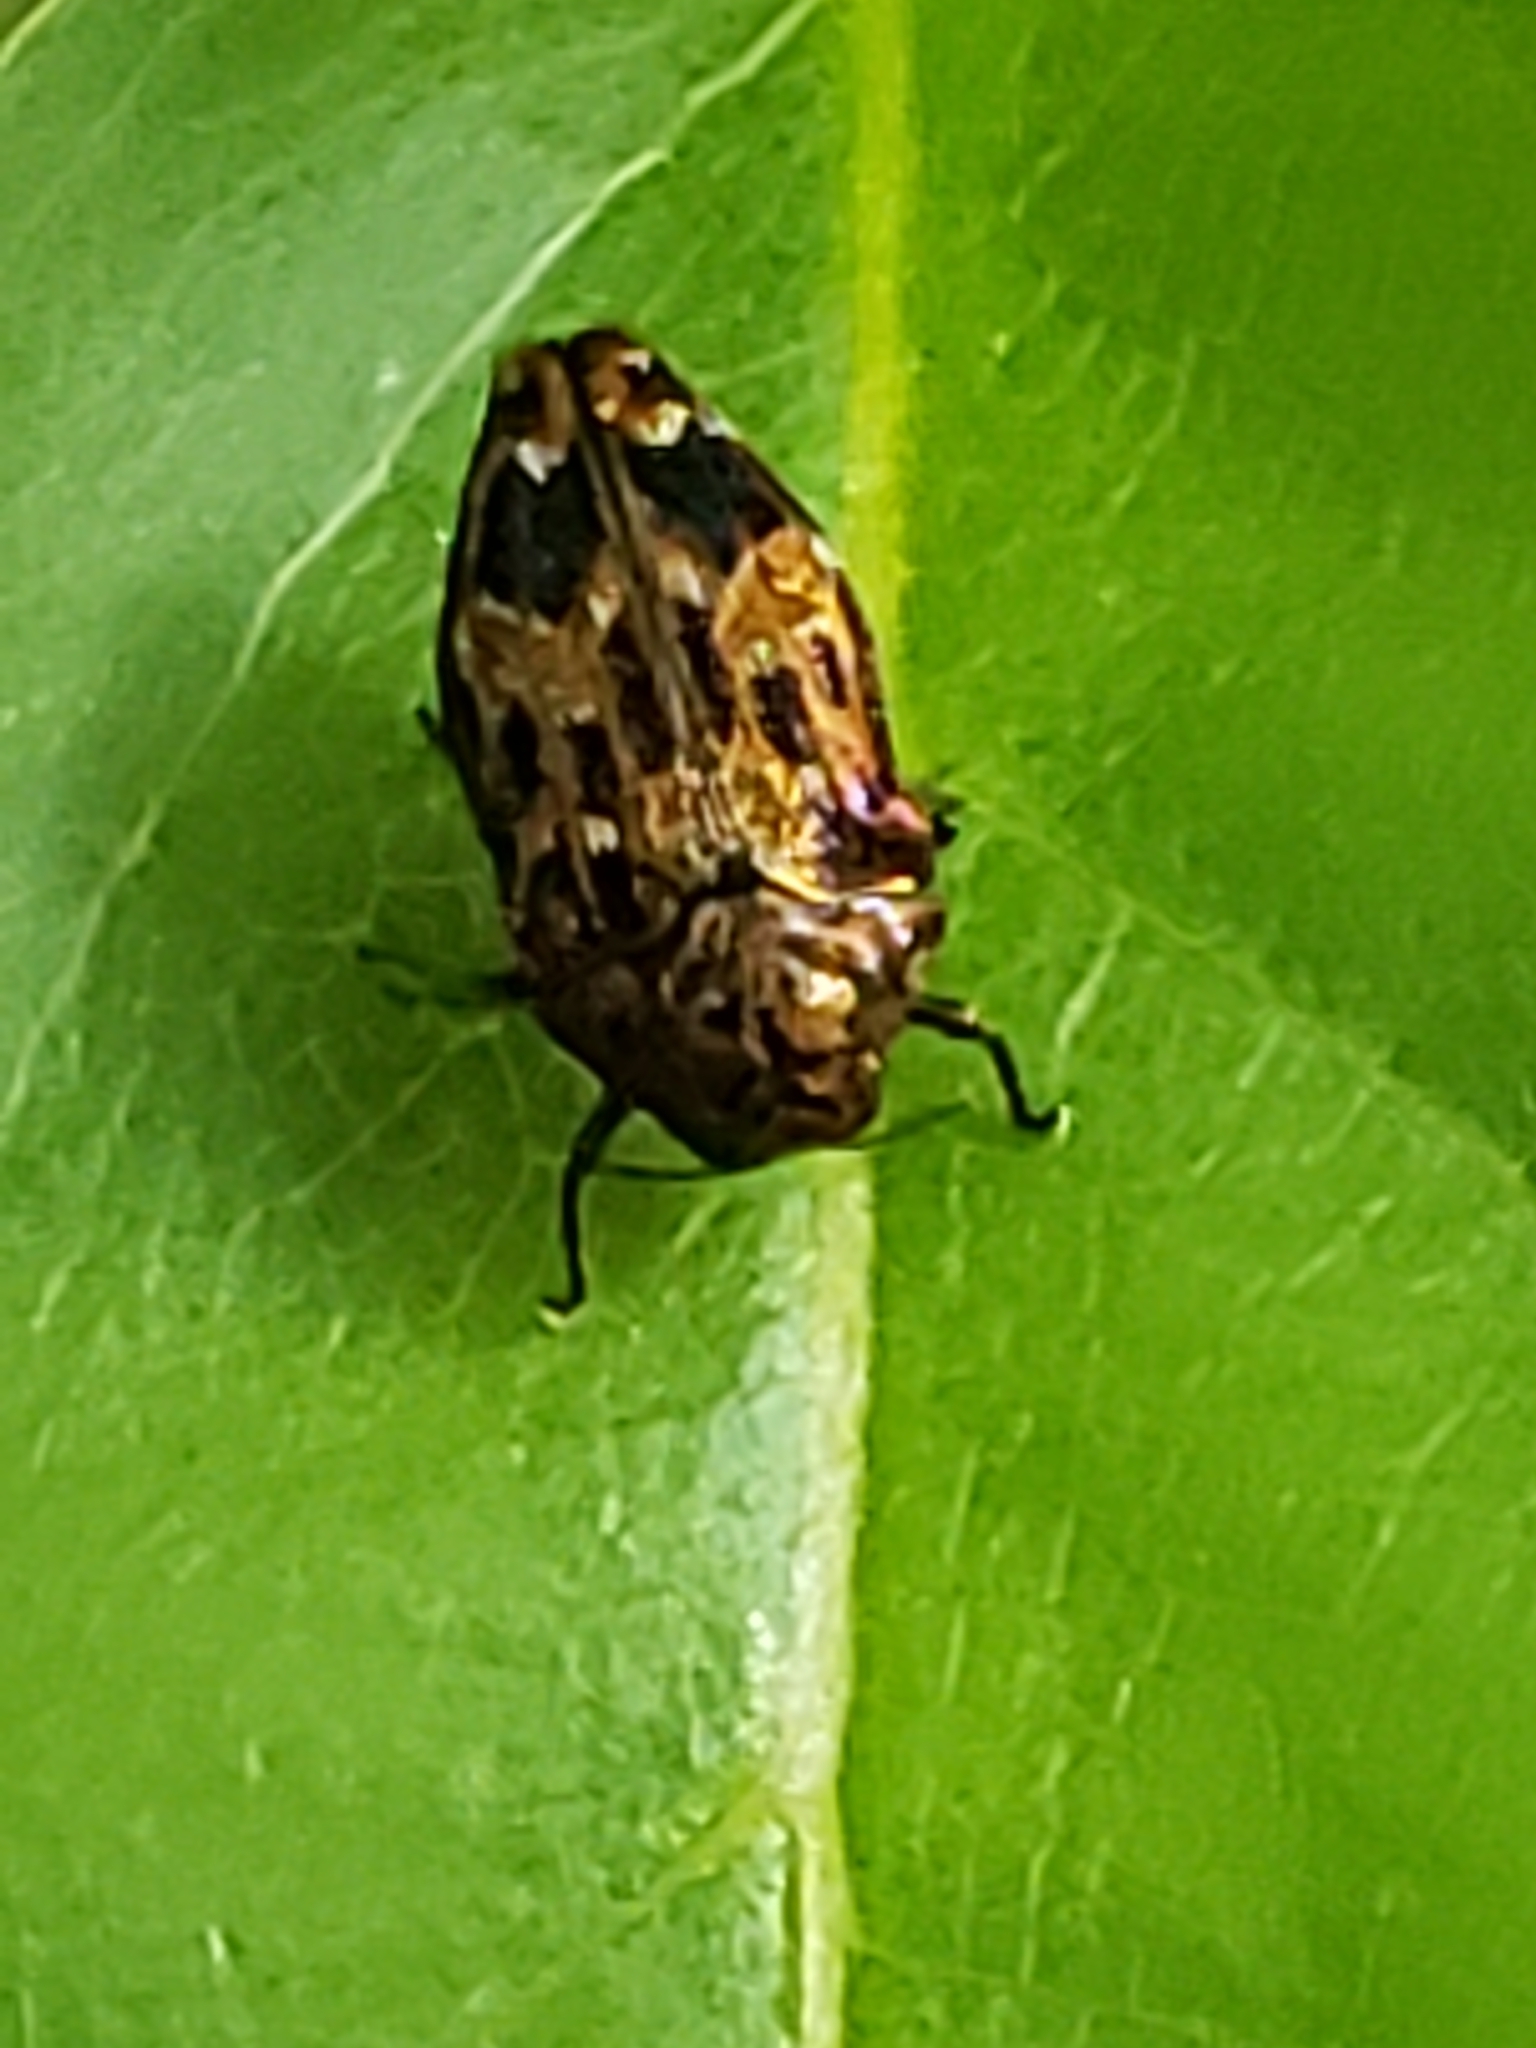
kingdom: Animalia
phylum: Arthropoda
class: Insecta
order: Coleoptera
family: Buprestidae
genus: Brachys
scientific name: Brachys ovatus
